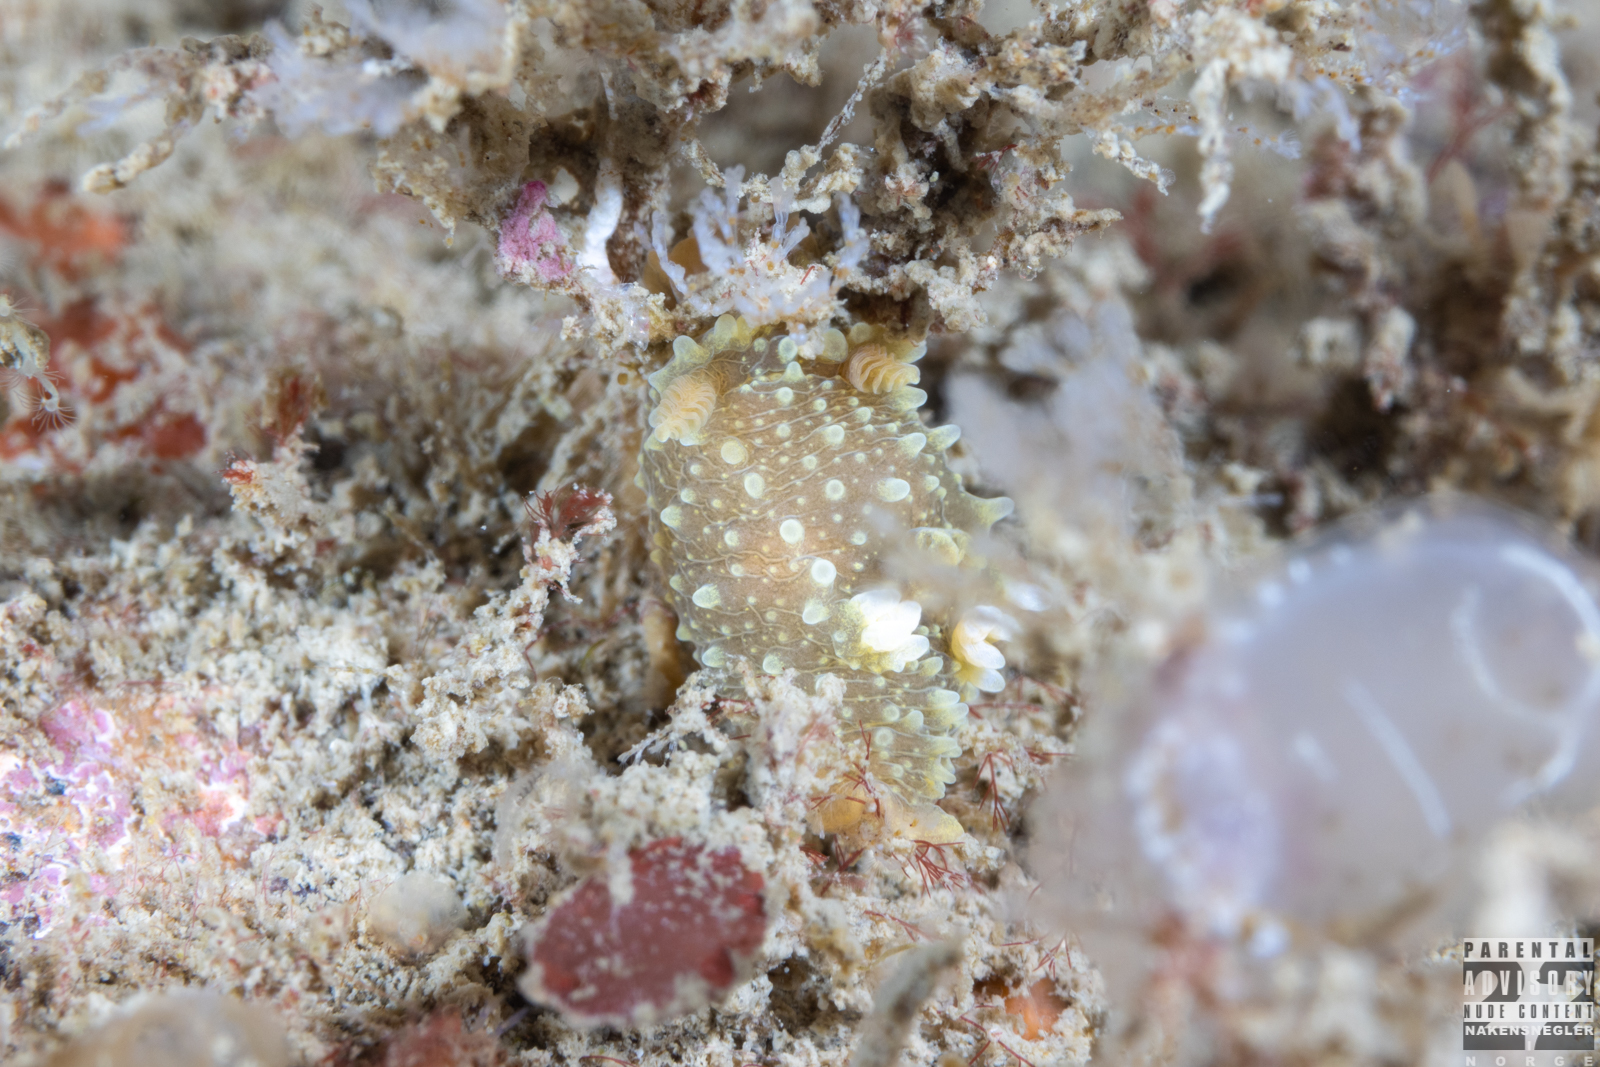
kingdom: Animalia
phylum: Mollusca
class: Gastropoda
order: Nudibranchia
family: Polyceridae
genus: Palio
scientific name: Palio dubia
